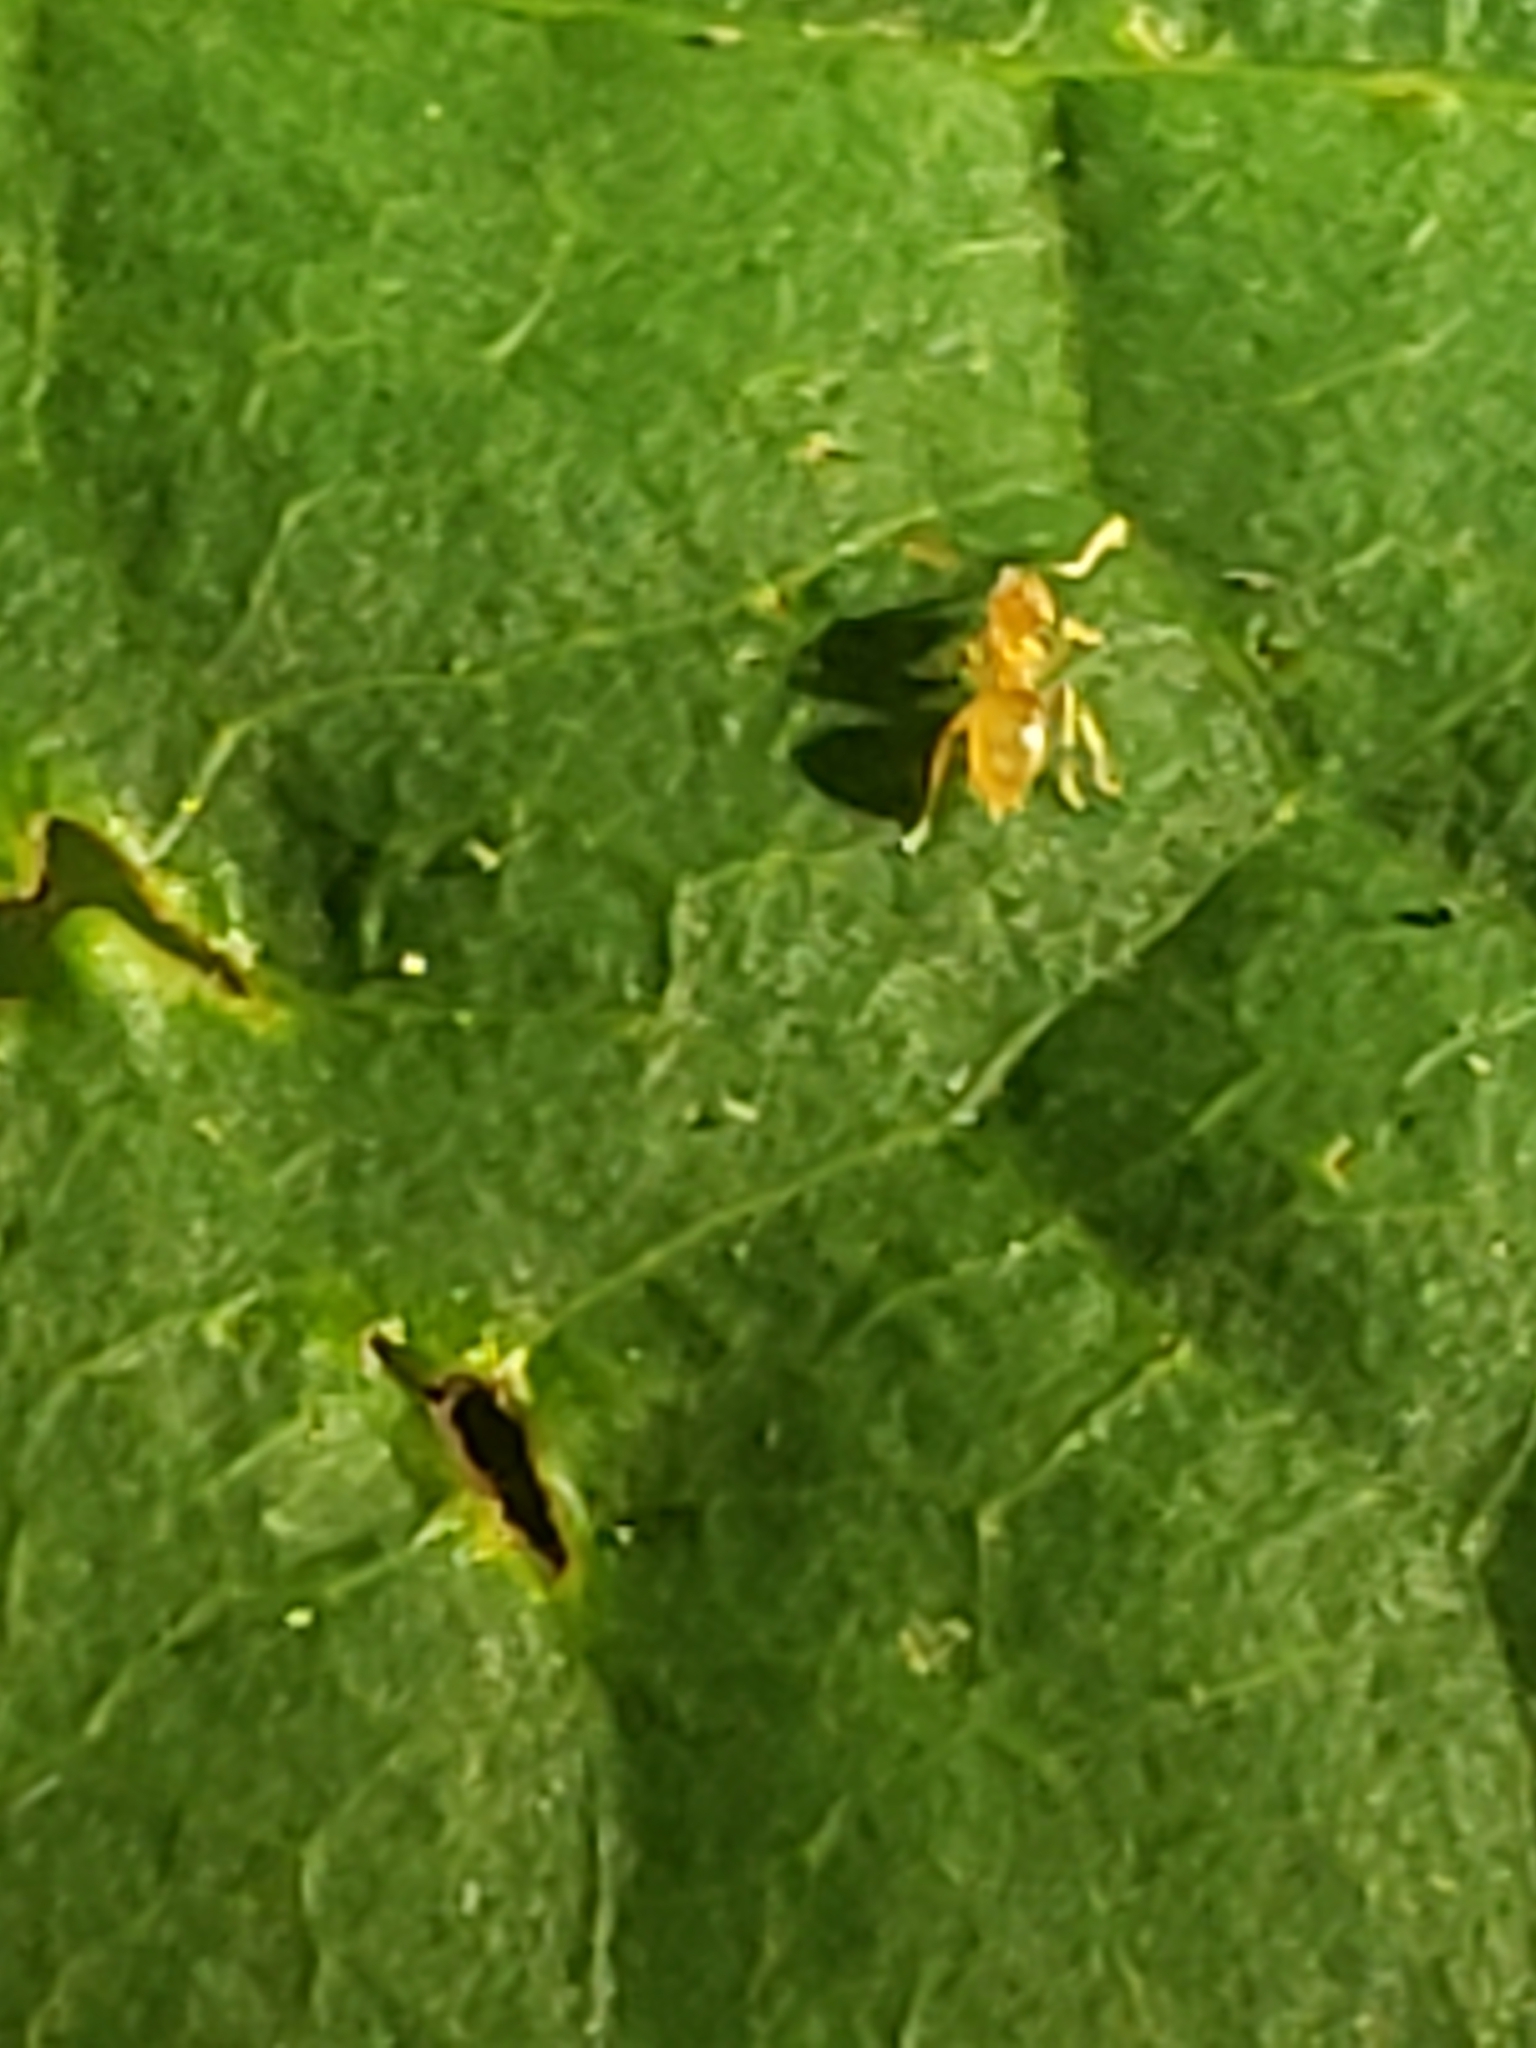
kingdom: Animalia
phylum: Arthropoda
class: Insecta
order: Hymenoptera
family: Formicidae
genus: Brachymyrmex
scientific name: Brachymyrmex depilis
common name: Hairless rover ant
